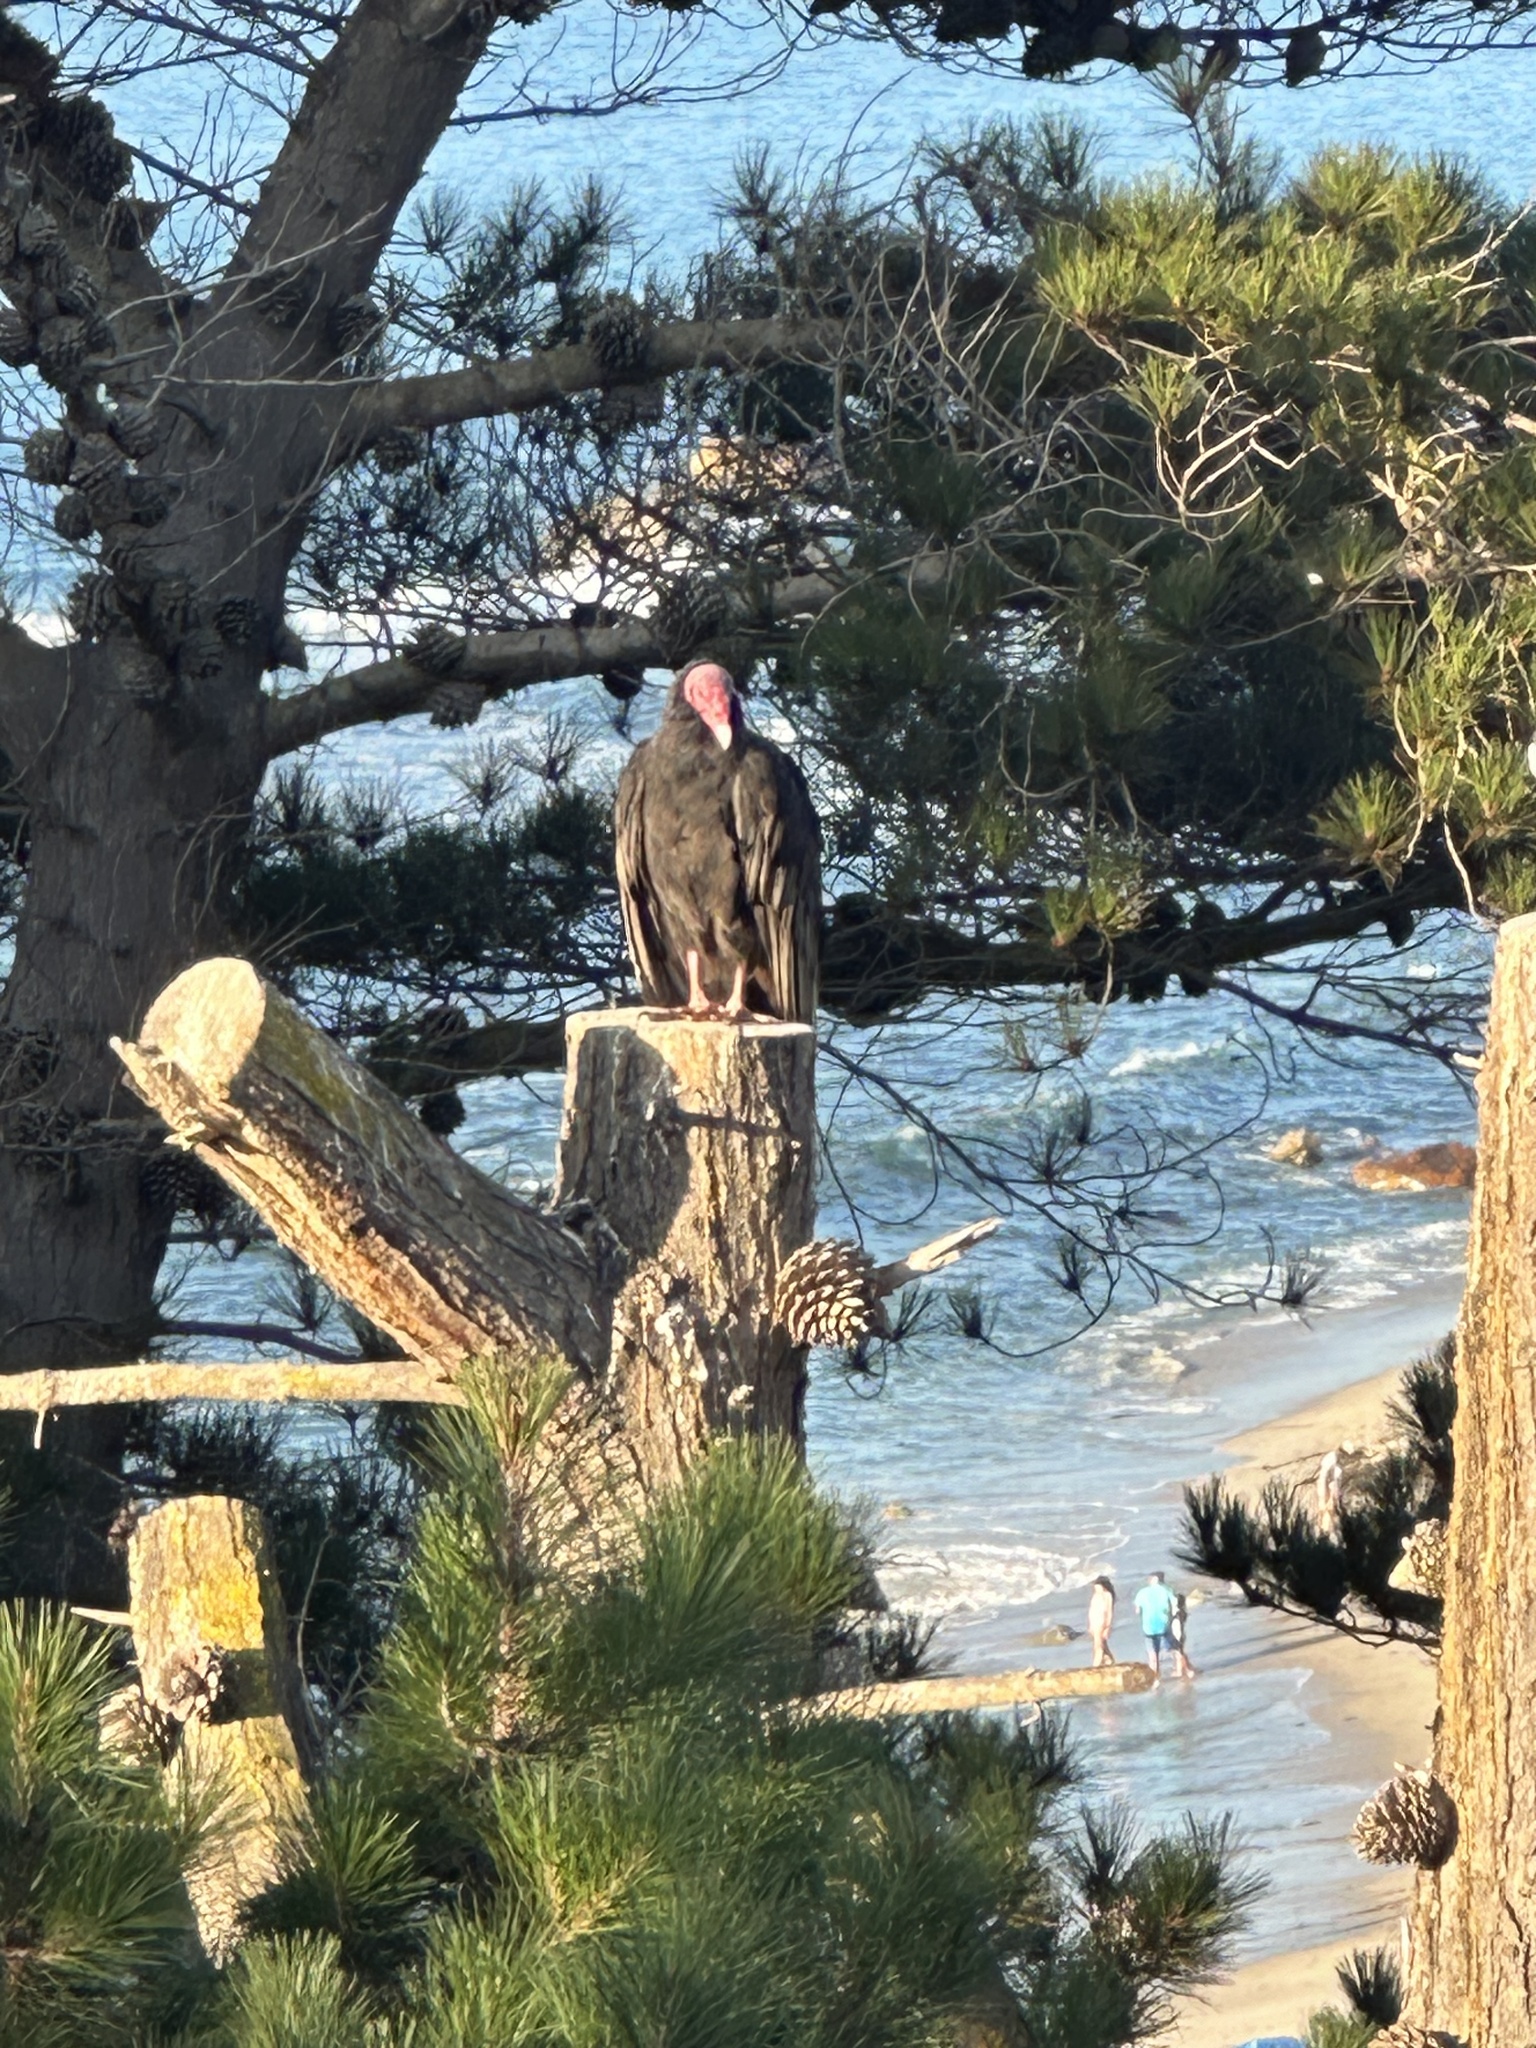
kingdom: Animalia
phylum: Chordata
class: Aves
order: Accipitriformes
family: Cathartidae
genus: Cathartes
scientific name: Cathartes aura
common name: Turkey vulture
